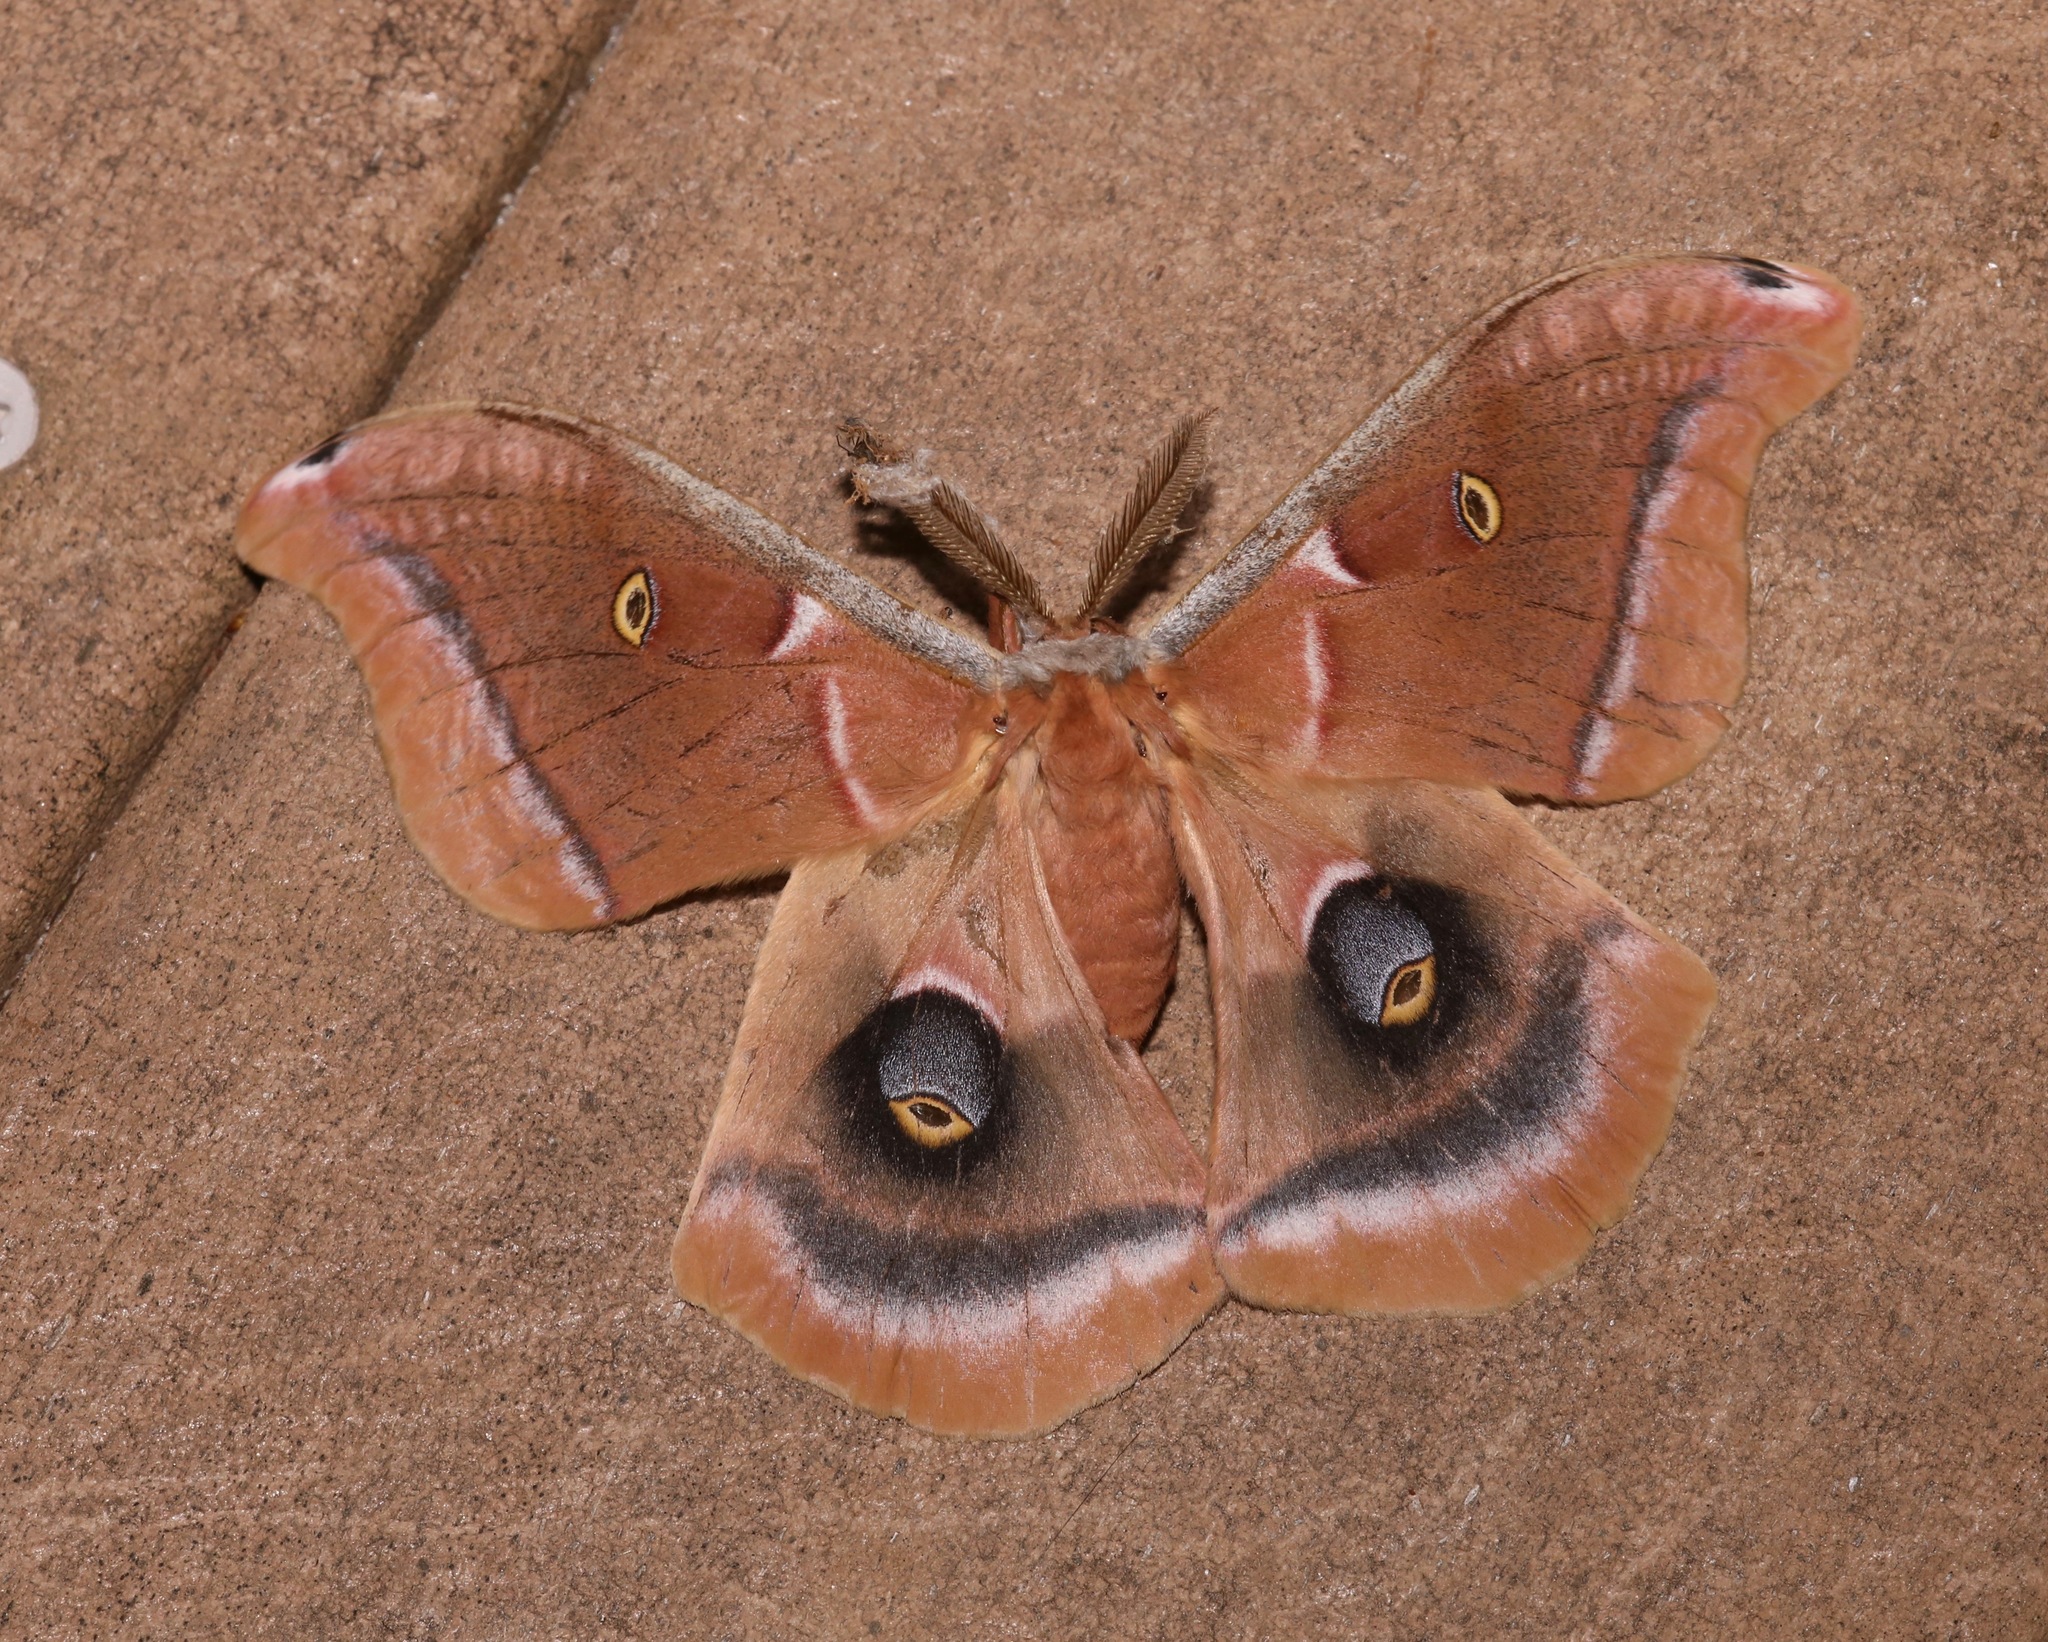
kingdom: Animalia
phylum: Arthropoda
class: Insecta
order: Lepidoptera
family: Saturniidae
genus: Antheraea
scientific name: Antheraea polyphemus
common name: Polyphemus moth
